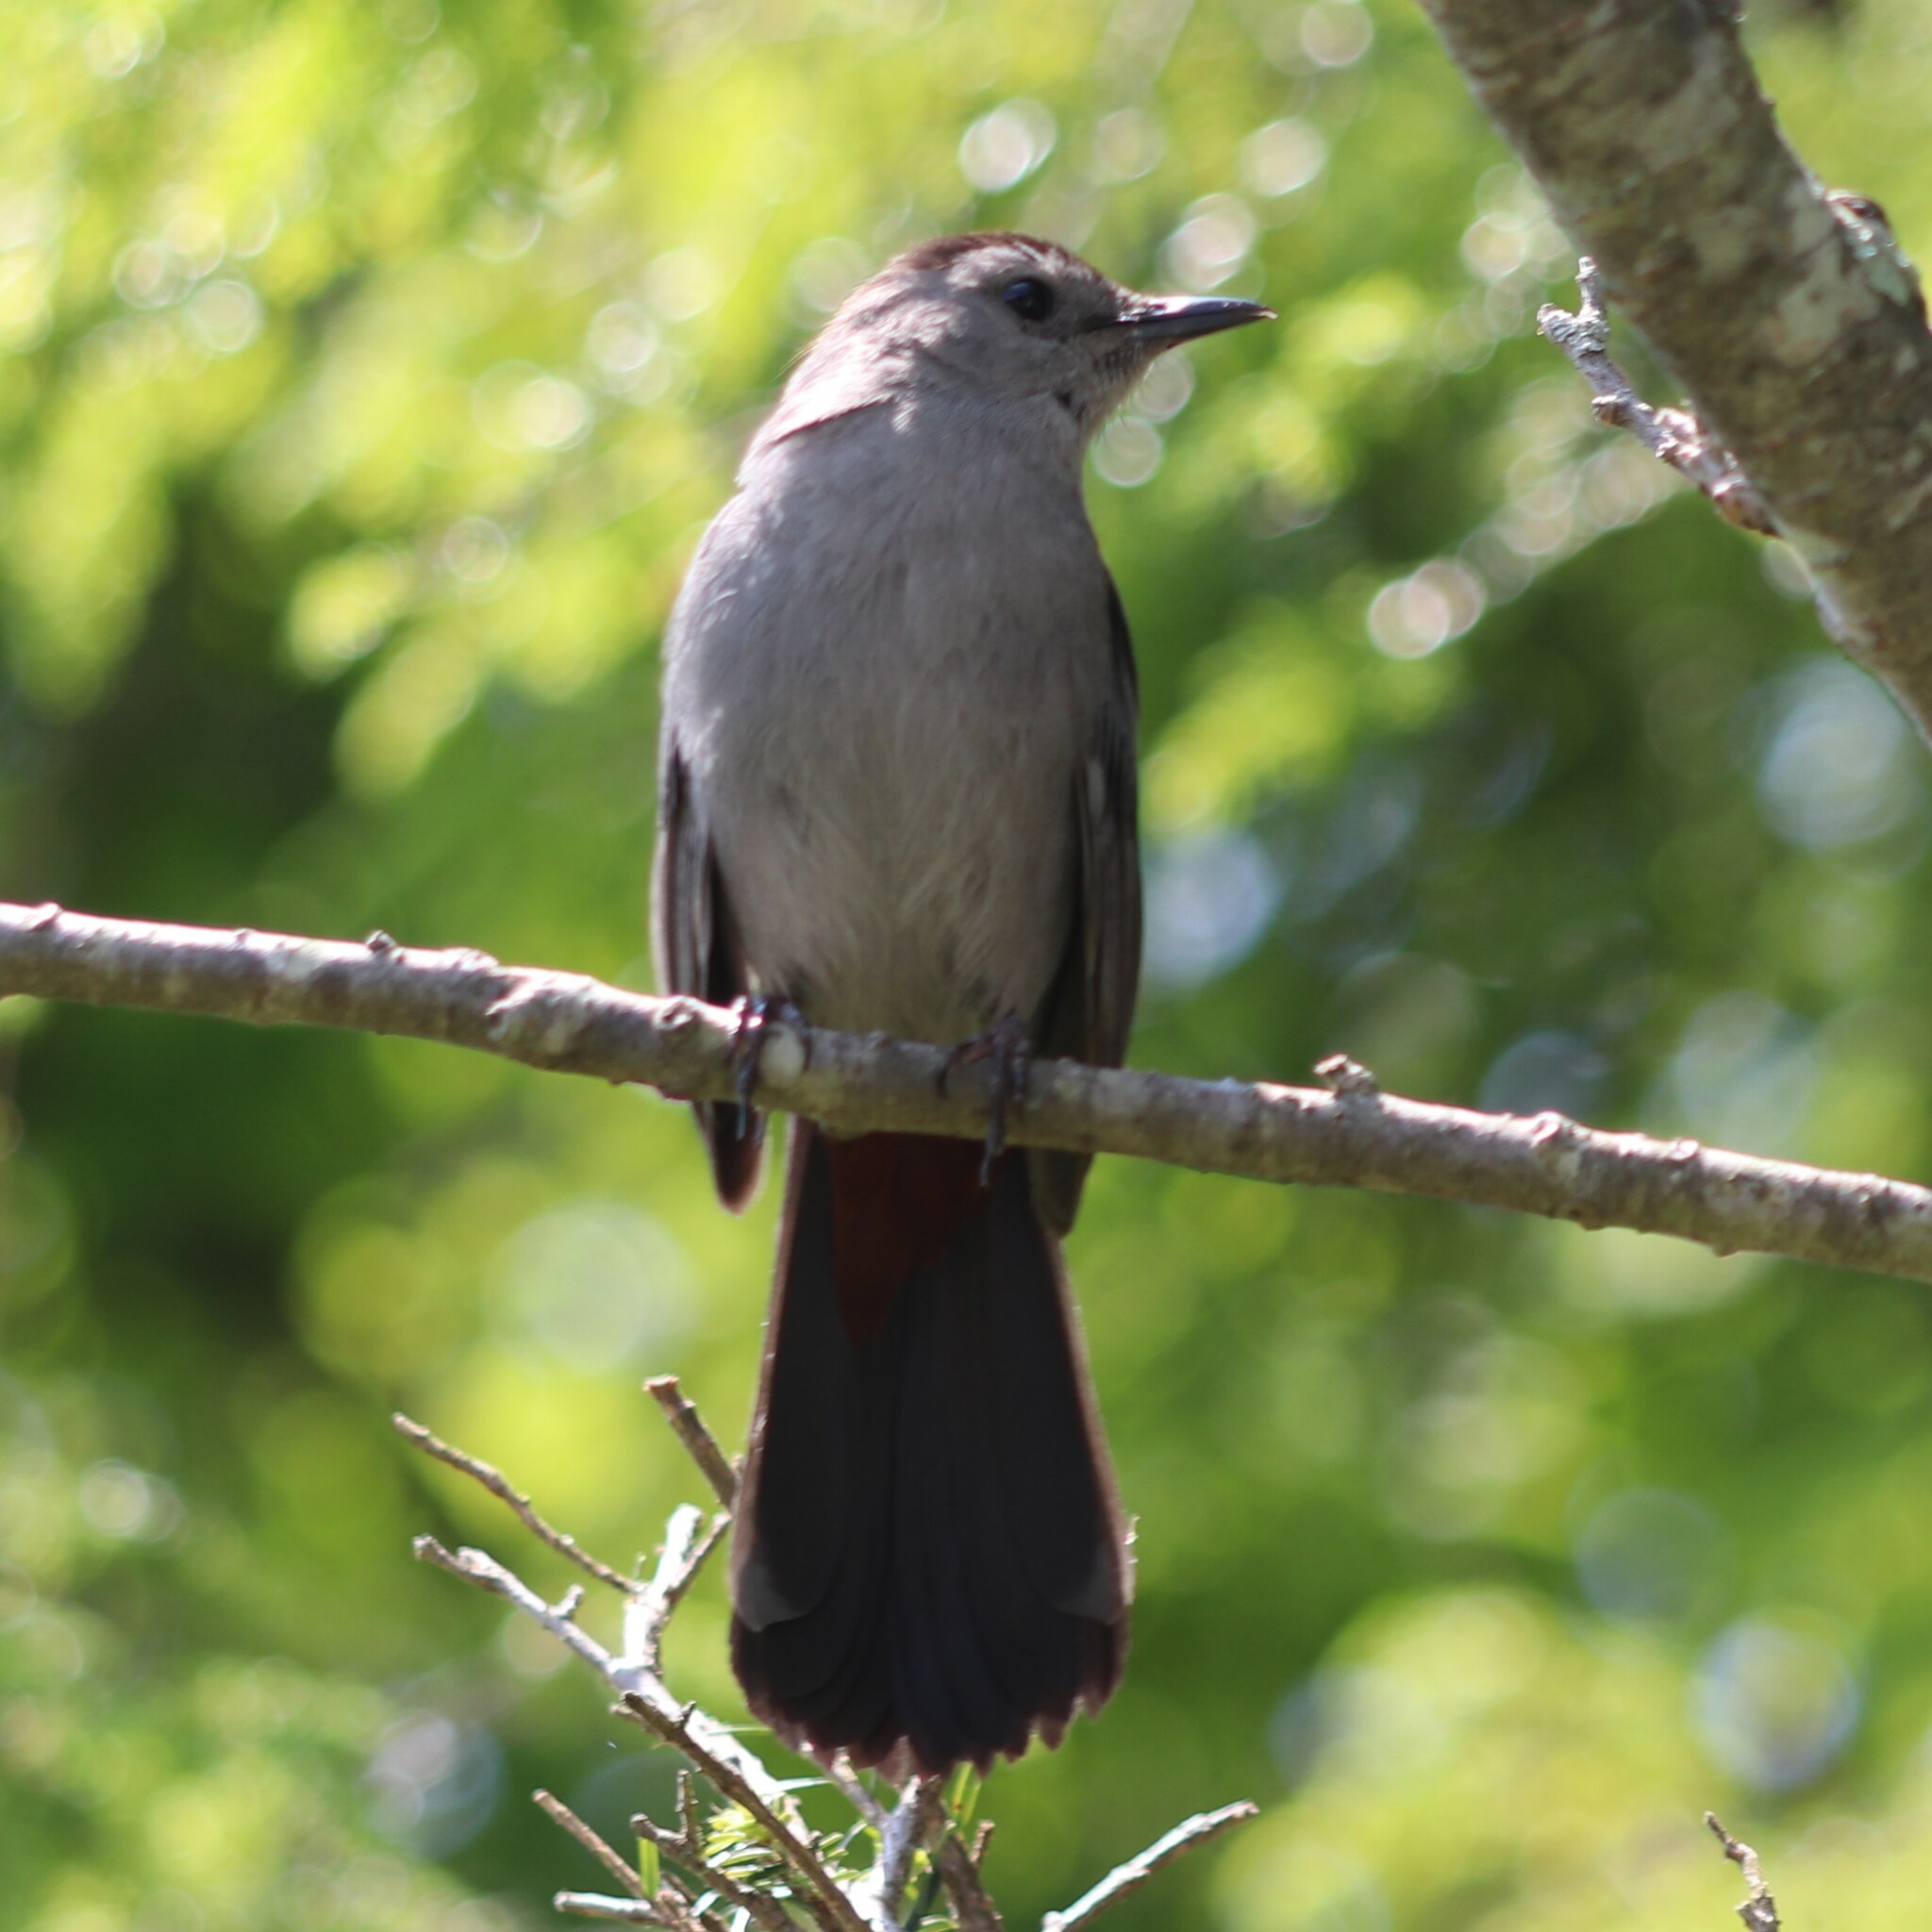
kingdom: Animalia
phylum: Chordata
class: Aves
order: Passeriformes
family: Mimidae
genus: Dumetella
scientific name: Dumetella carolinensis
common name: Gray catbird
